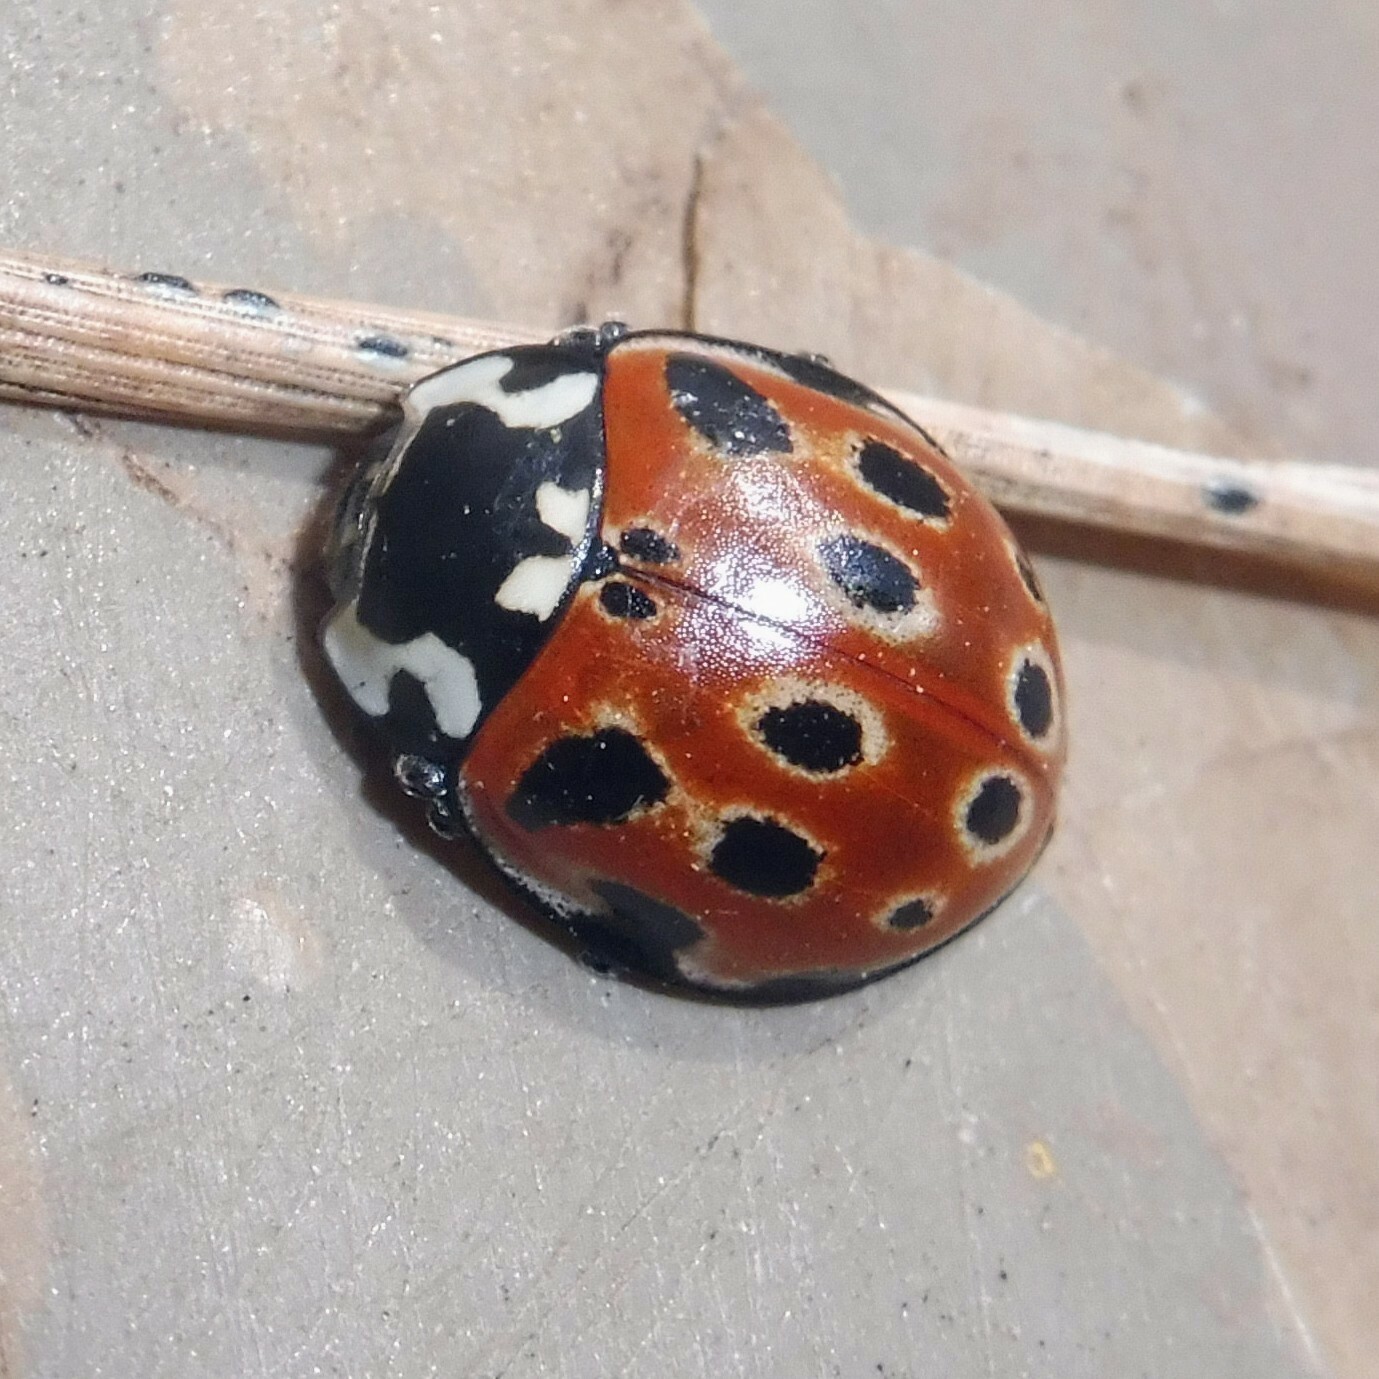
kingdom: Animalia
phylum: Arthropoda
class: Insecta
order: Coleoptera
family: Coccinellidae
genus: Anatis
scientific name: Anatis ocellata
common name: Eyed ladybird
